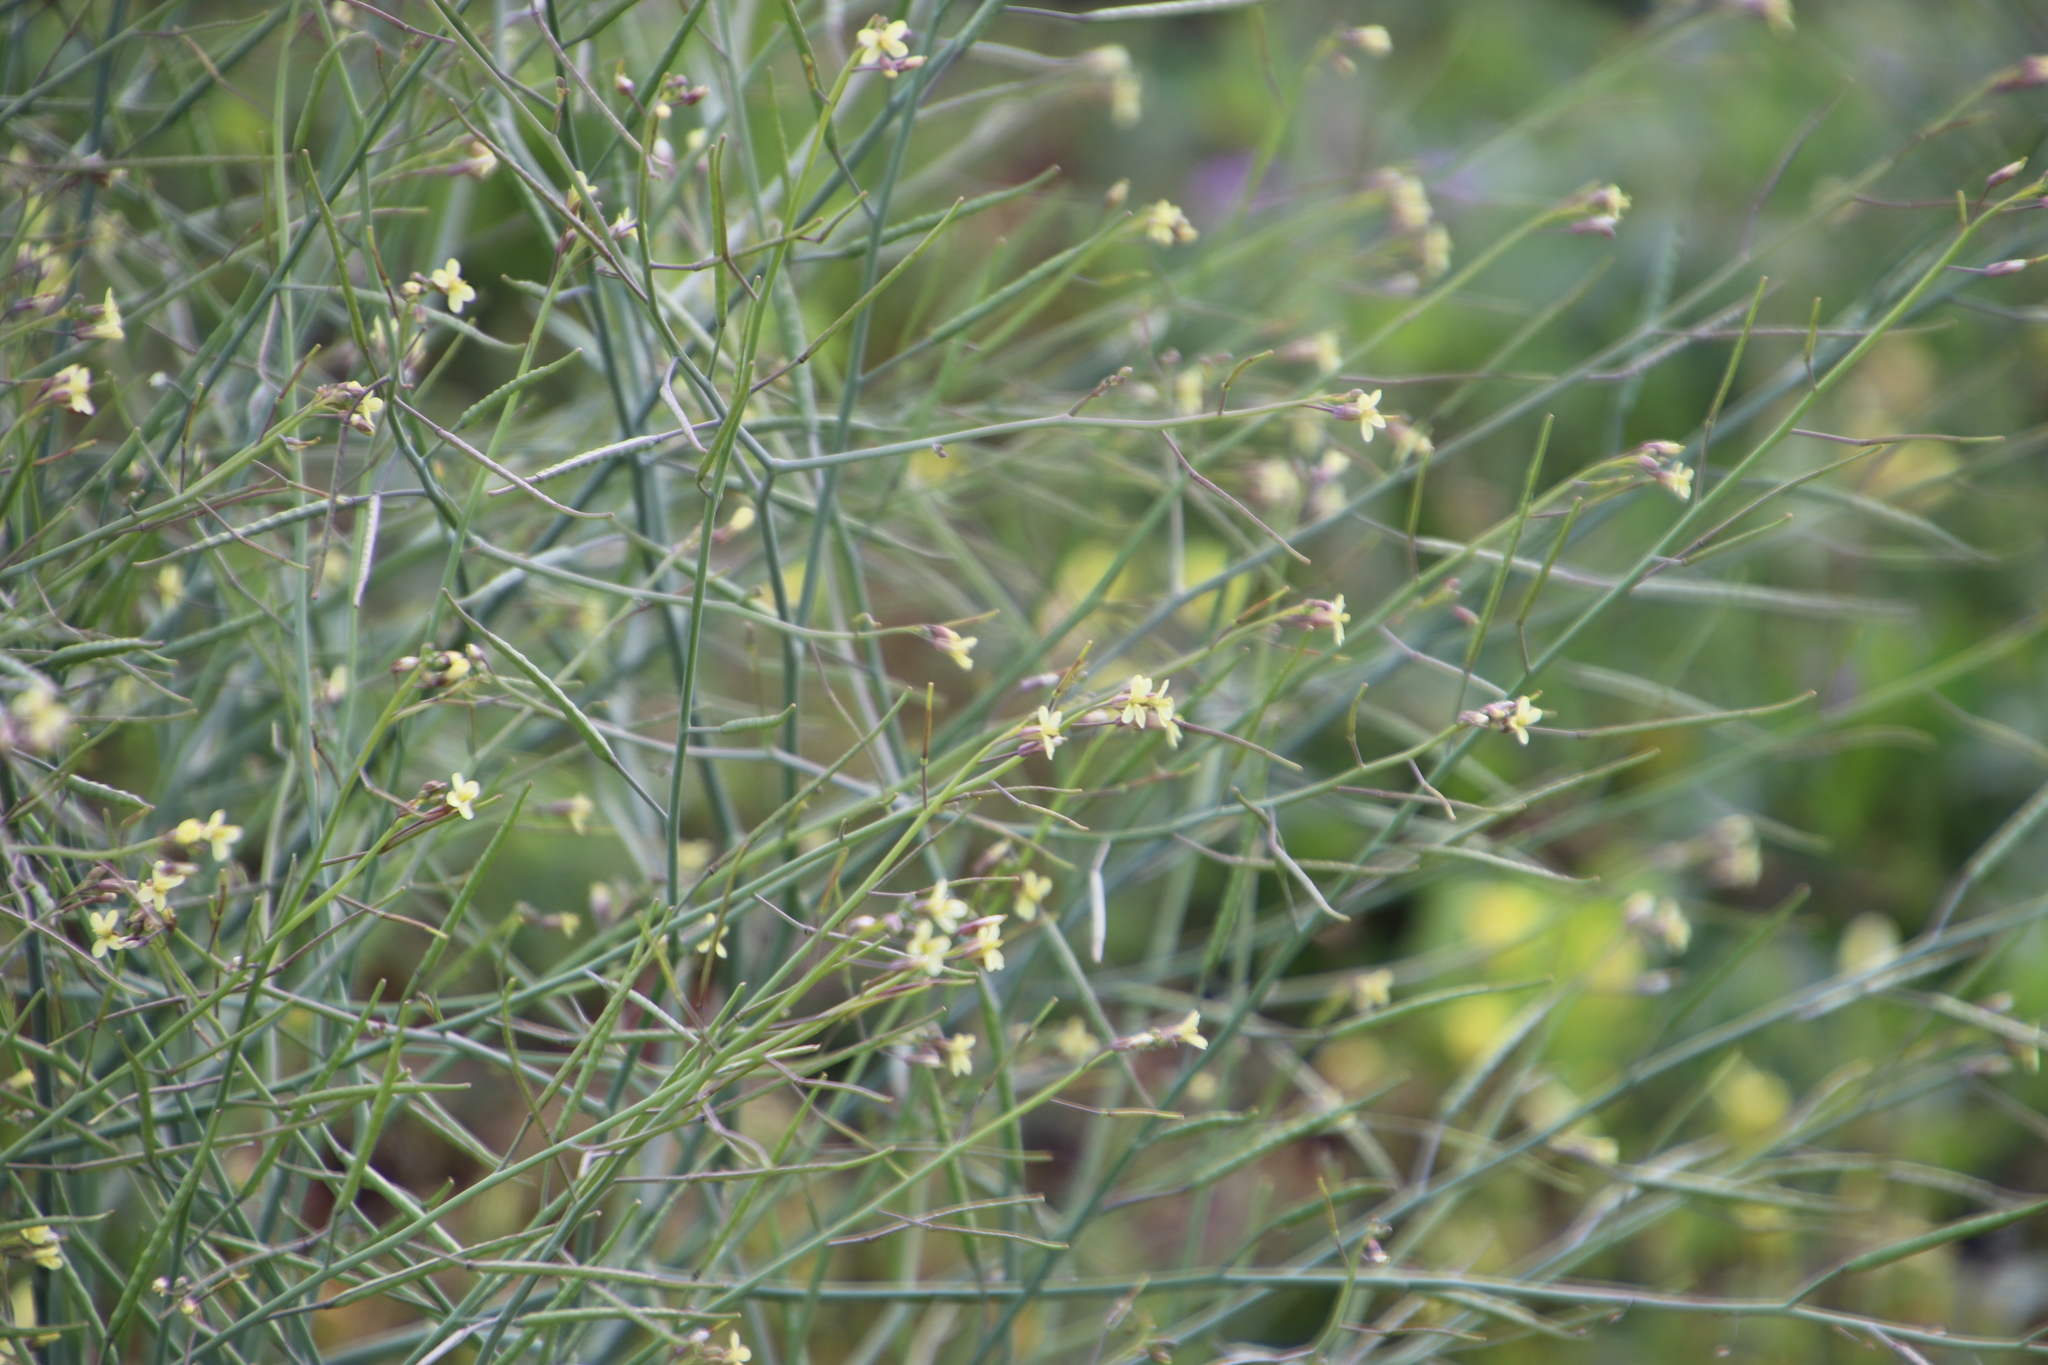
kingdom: Plantae
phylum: Tracheophyta
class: Magnoliopsida
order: Brassicales
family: Brassicaceae
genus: Brassica
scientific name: Brassica tournefortii
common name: Pale cabbage
